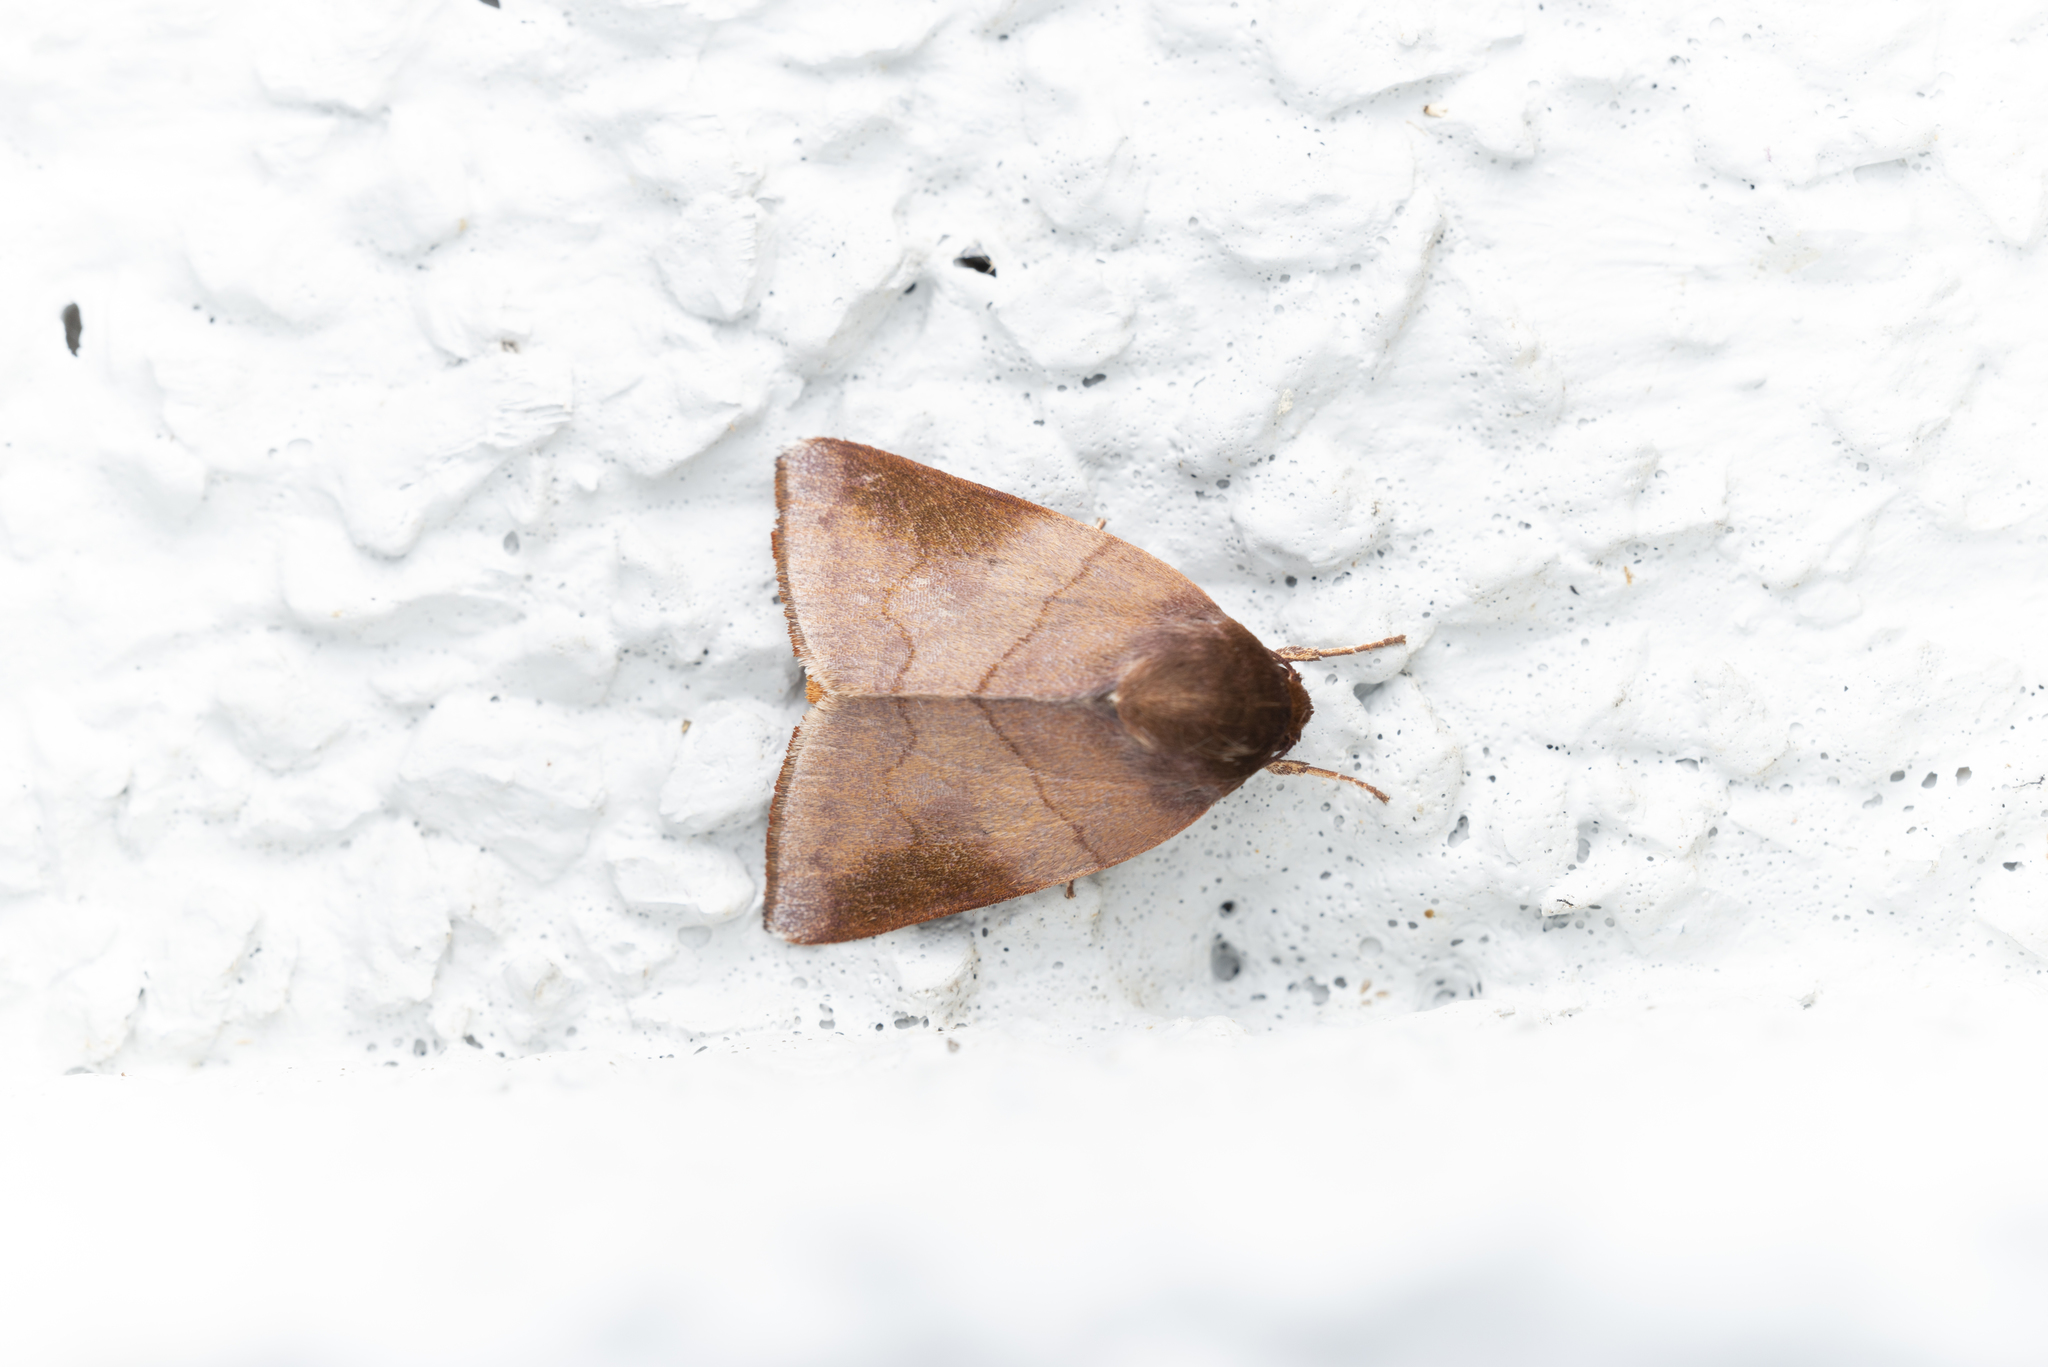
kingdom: Animalia
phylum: Arthropoda
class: Insecta
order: Lepidoptera
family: Nolidae
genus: Carea
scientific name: Carea internifusca
